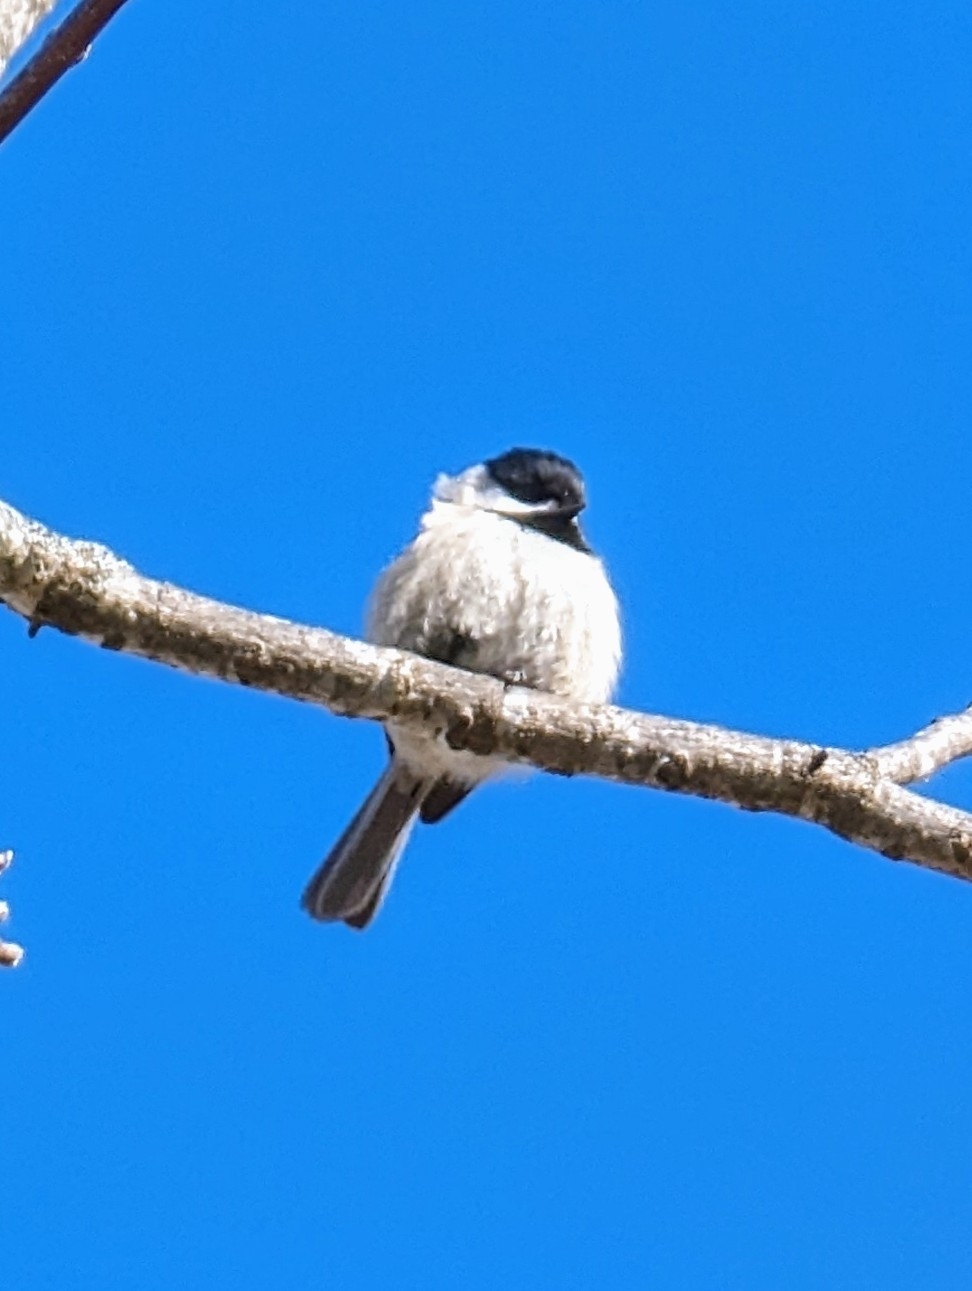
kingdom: Animalia
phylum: Chordata
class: Aves
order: Passeriformes
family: Paridae
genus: Poecile
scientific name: Poecile carolinensis
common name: Carolina chickadee
